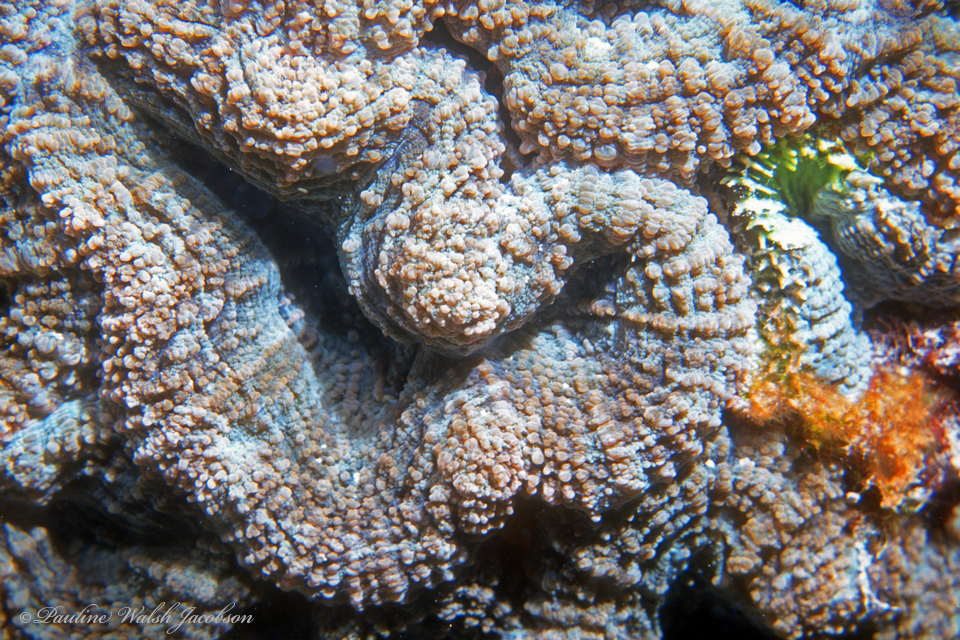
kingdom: Animalia
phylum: Cnidaria
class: Anthozoa
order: Scleractinia
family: Faviidae
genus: Mussa
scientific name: Mussa angulosa
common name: Spiny flower coral
